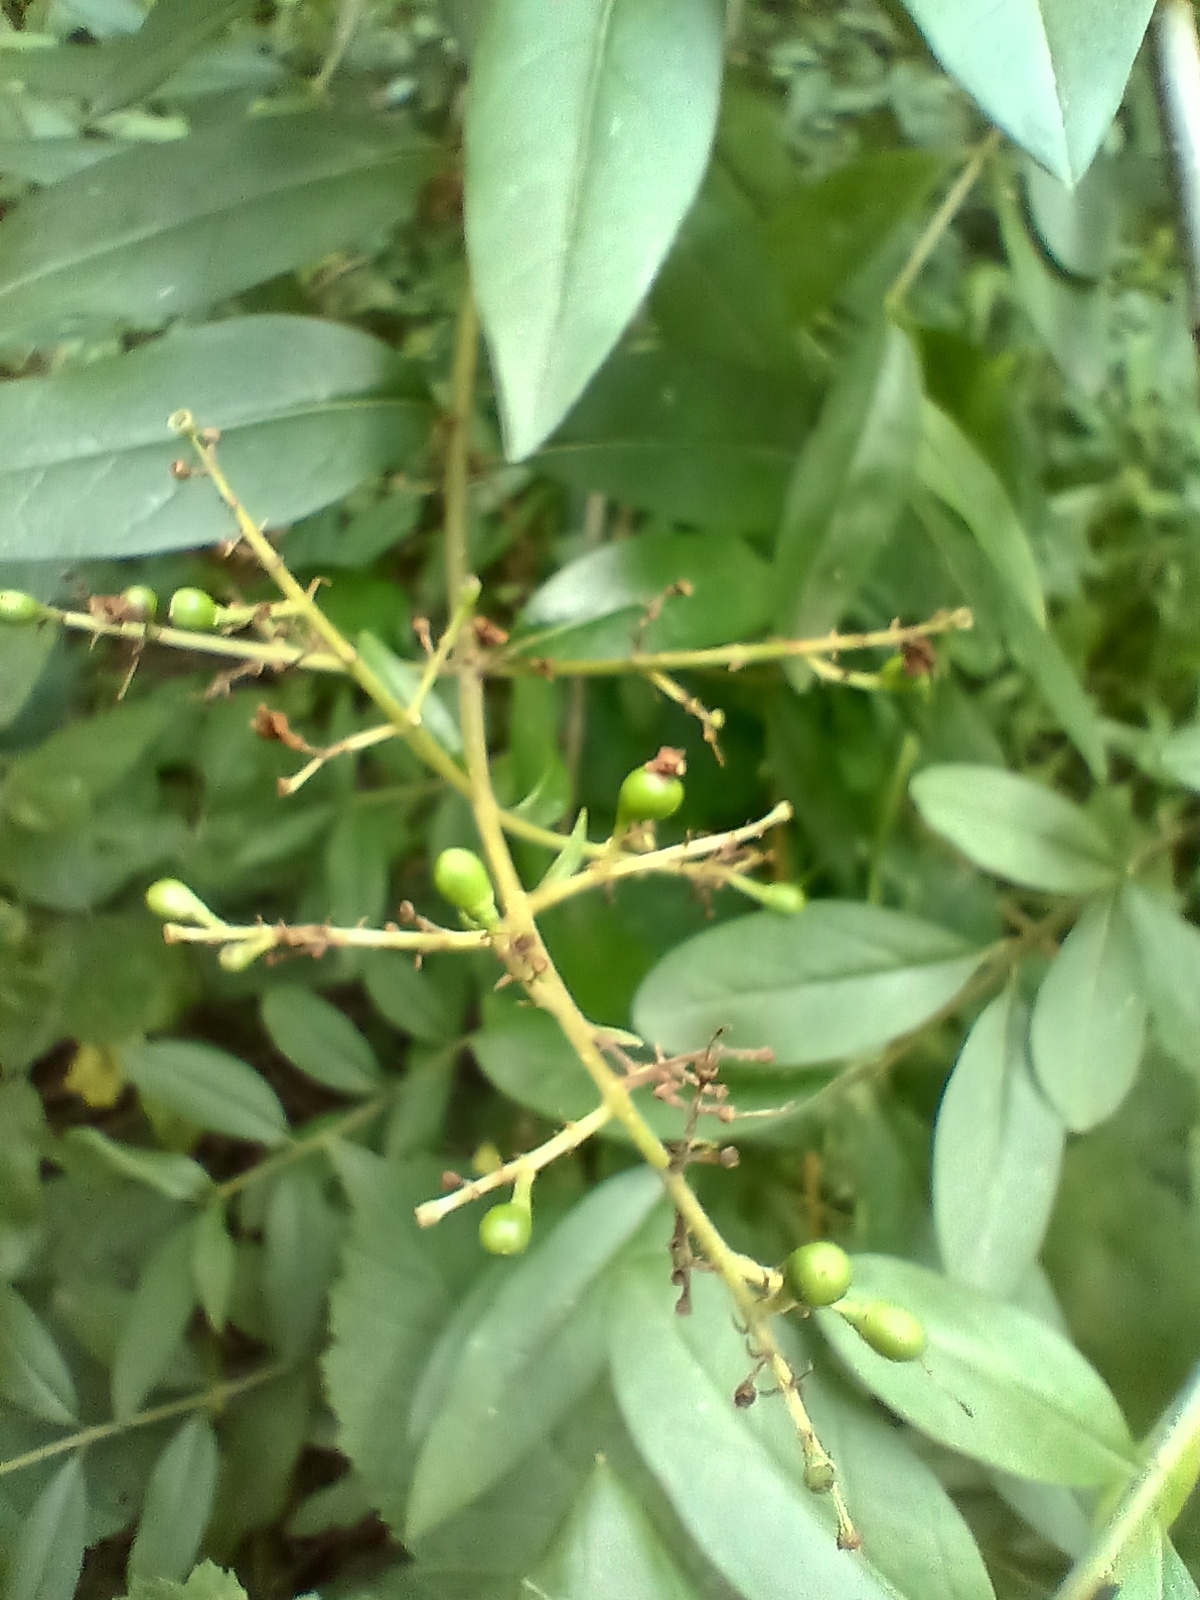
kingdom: Plantae
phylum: Tracheophyta
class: Magnoliopsida
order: Lamiales
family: Oleaceae
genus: Ligustrum
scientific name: Ligustrum vulgare
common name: Wild privet
